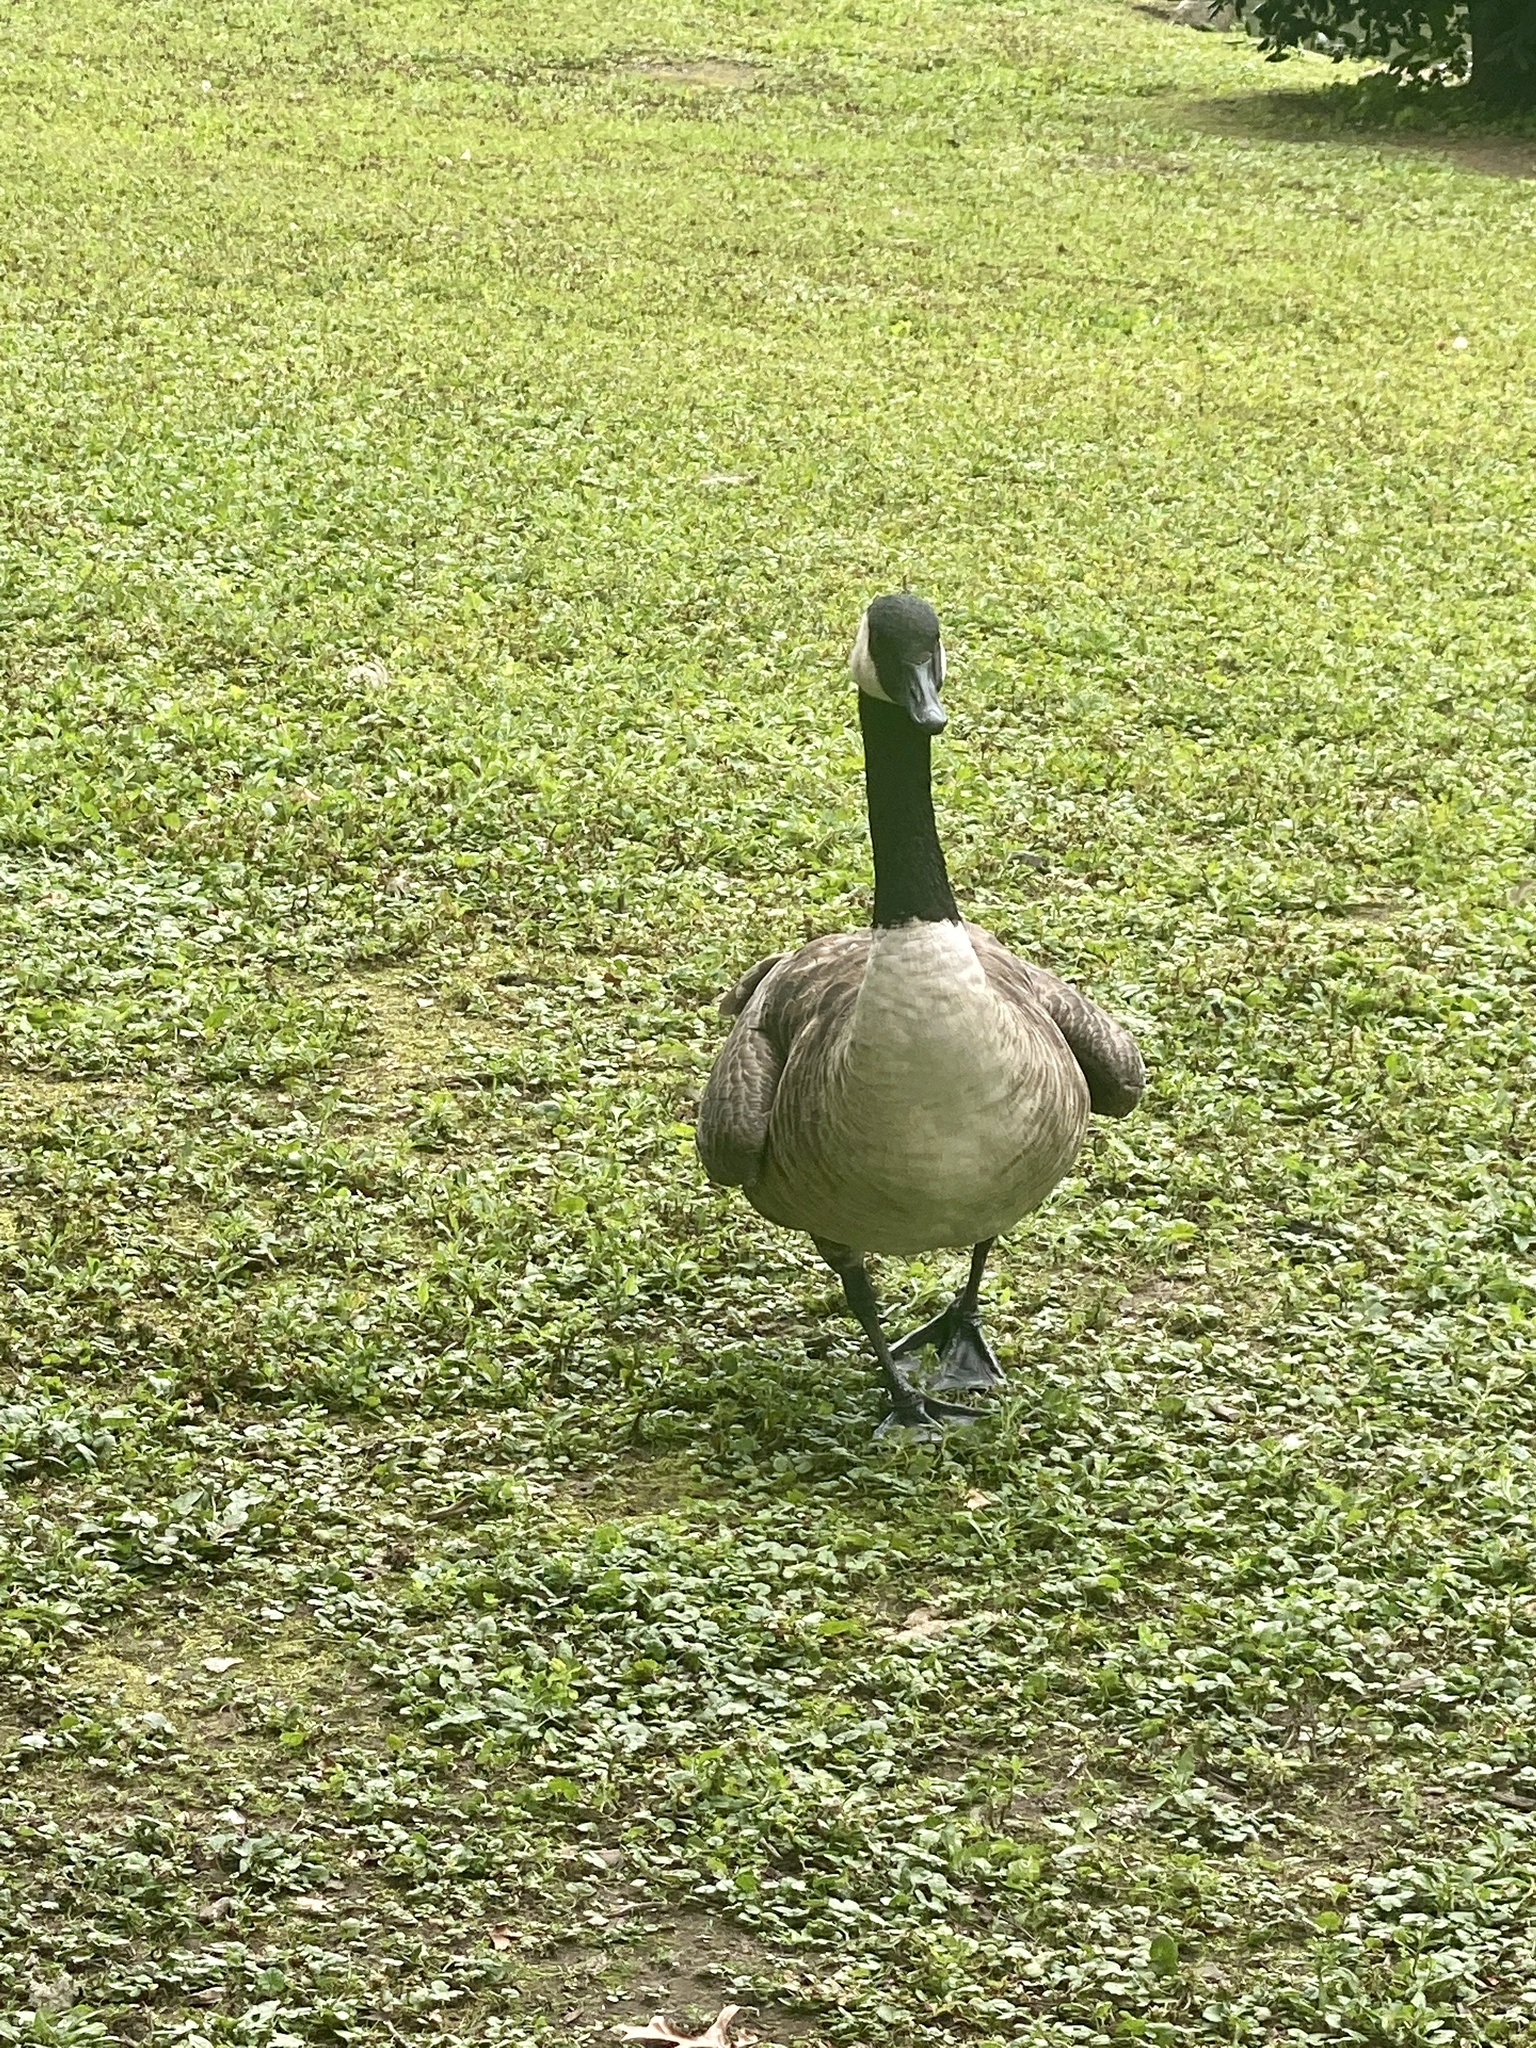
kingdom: Animalia
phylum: Chordata
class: Aves
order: Anseriformes
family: Anatidae
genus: Branta
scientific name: Branta canadensis
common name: Canada goose
